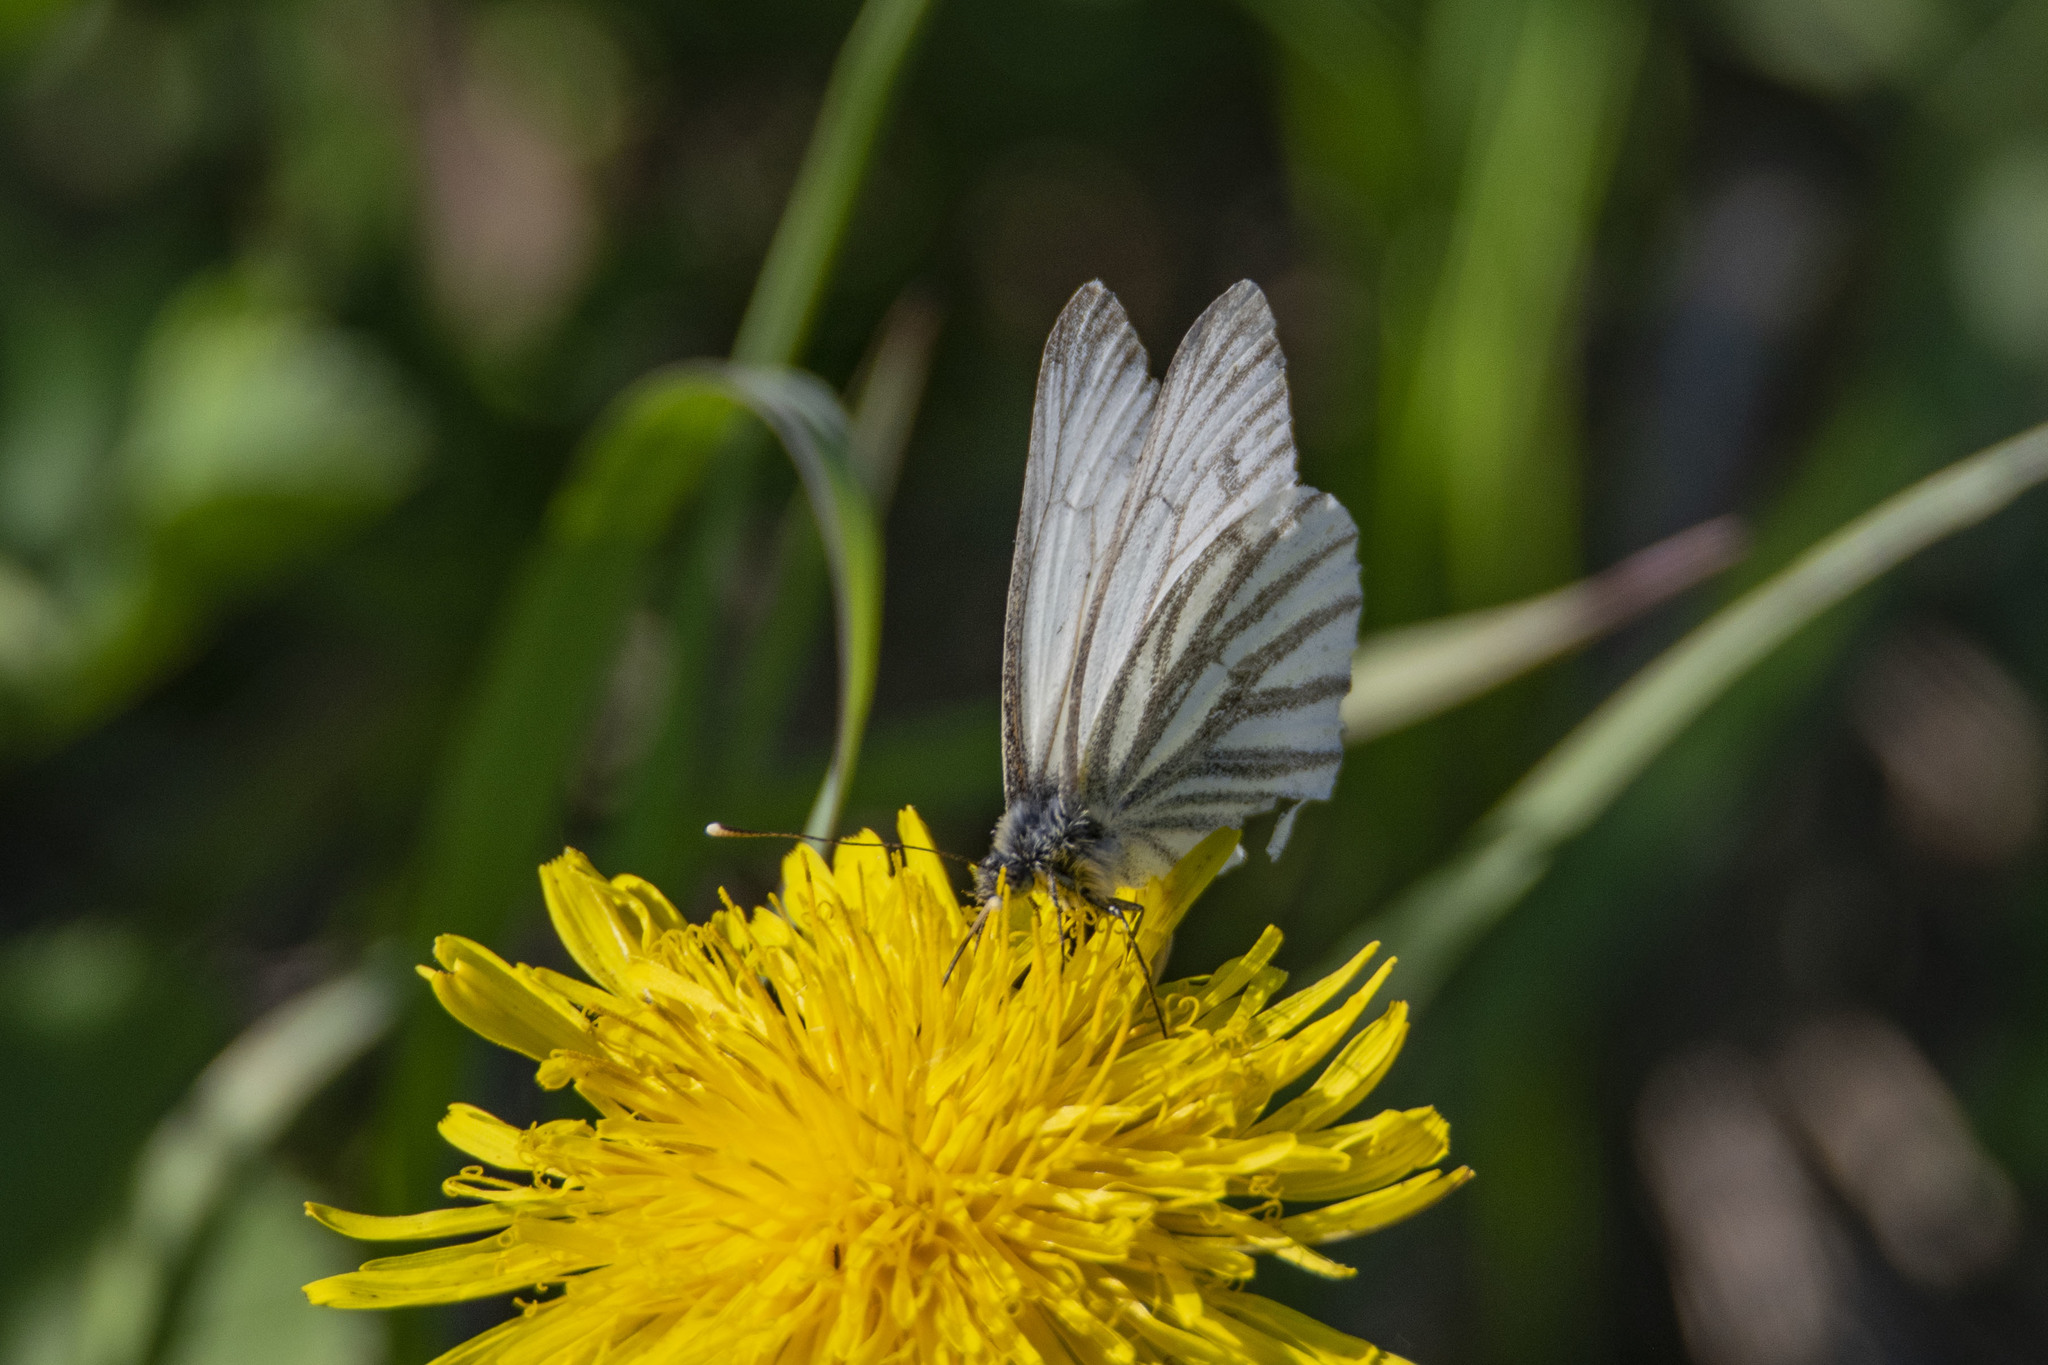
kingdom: Animalia
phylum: Arthropoda
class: Insecta
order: Lepidoptera
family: Pieridae
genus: Pieris
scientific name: Pieris napi
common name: Green-veined white
